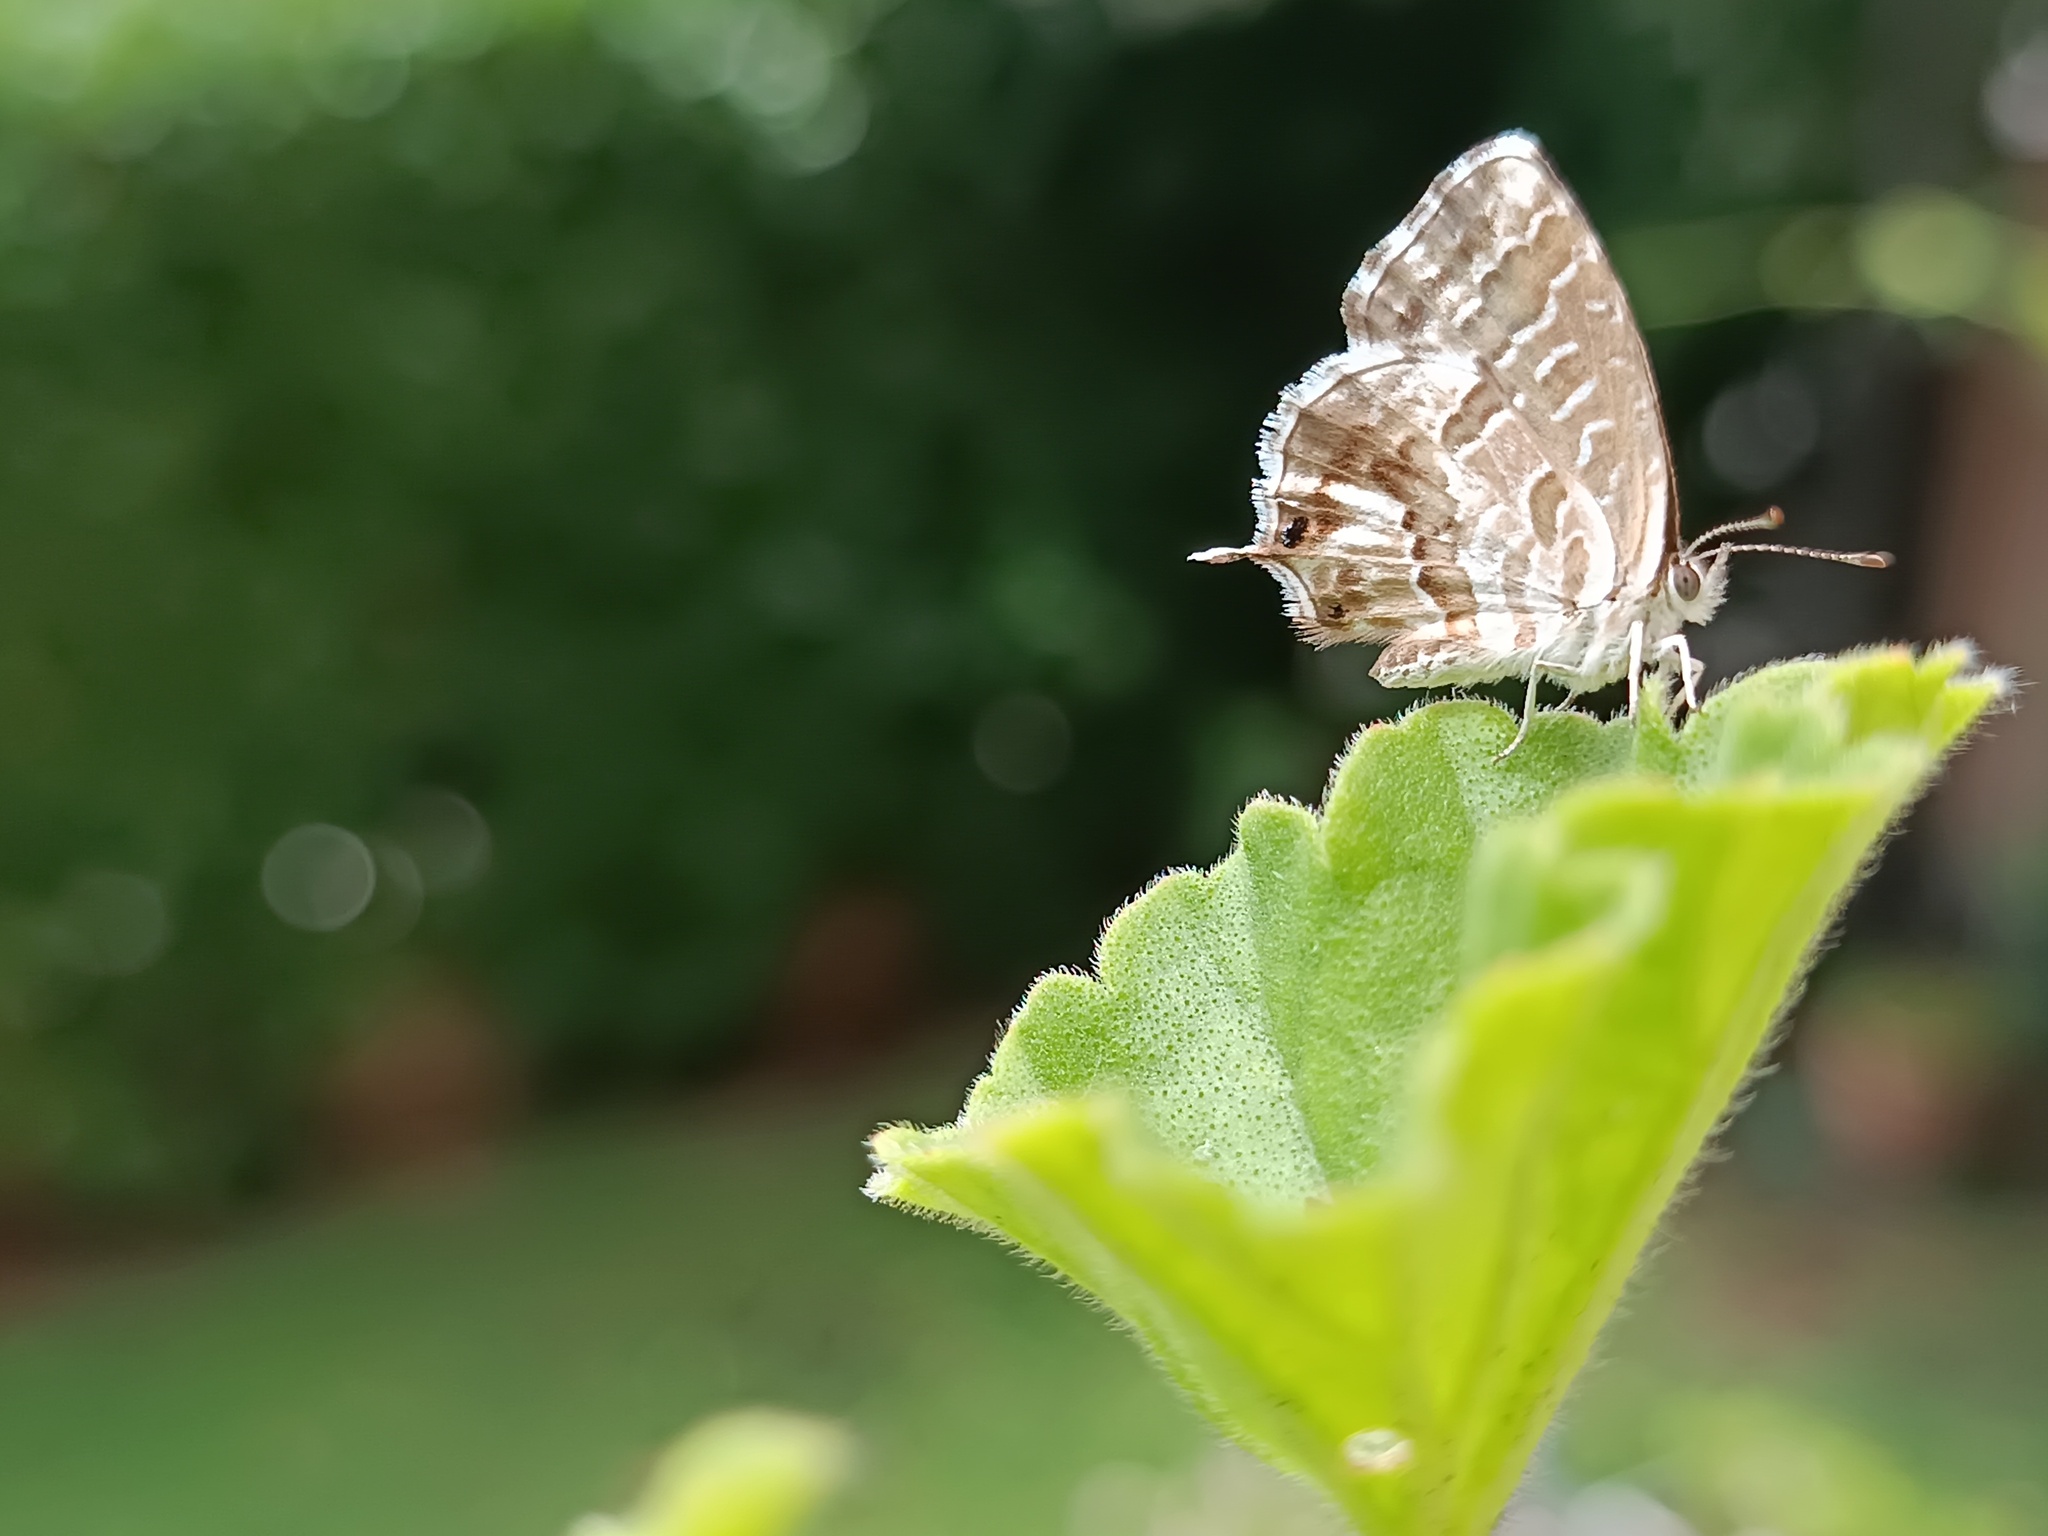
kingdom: Animalia
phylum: Arthropoda
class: Insecta
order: Lepidoptera
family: Lycaenidae
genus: Cacyreus
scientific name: Cacyreus marshalli
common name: Geranium bronze
